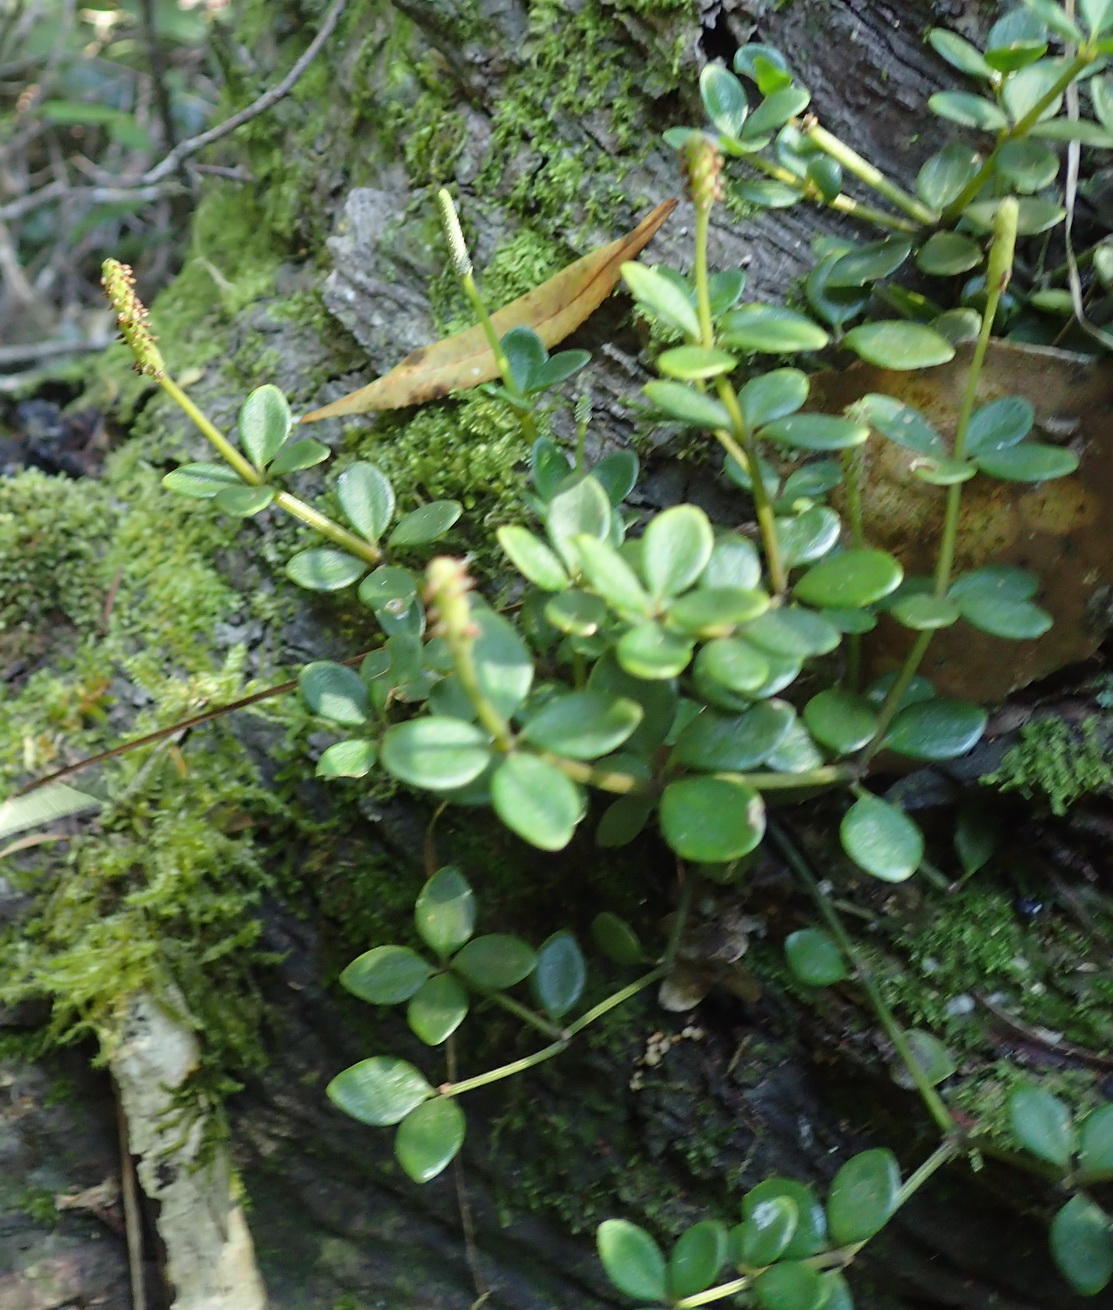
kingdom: Plantae
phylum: Tracheophyta
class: Magnoliopsida
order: Piperales
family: Piperaceae
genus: Peperomia
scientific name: Peperomia tetraphylla
